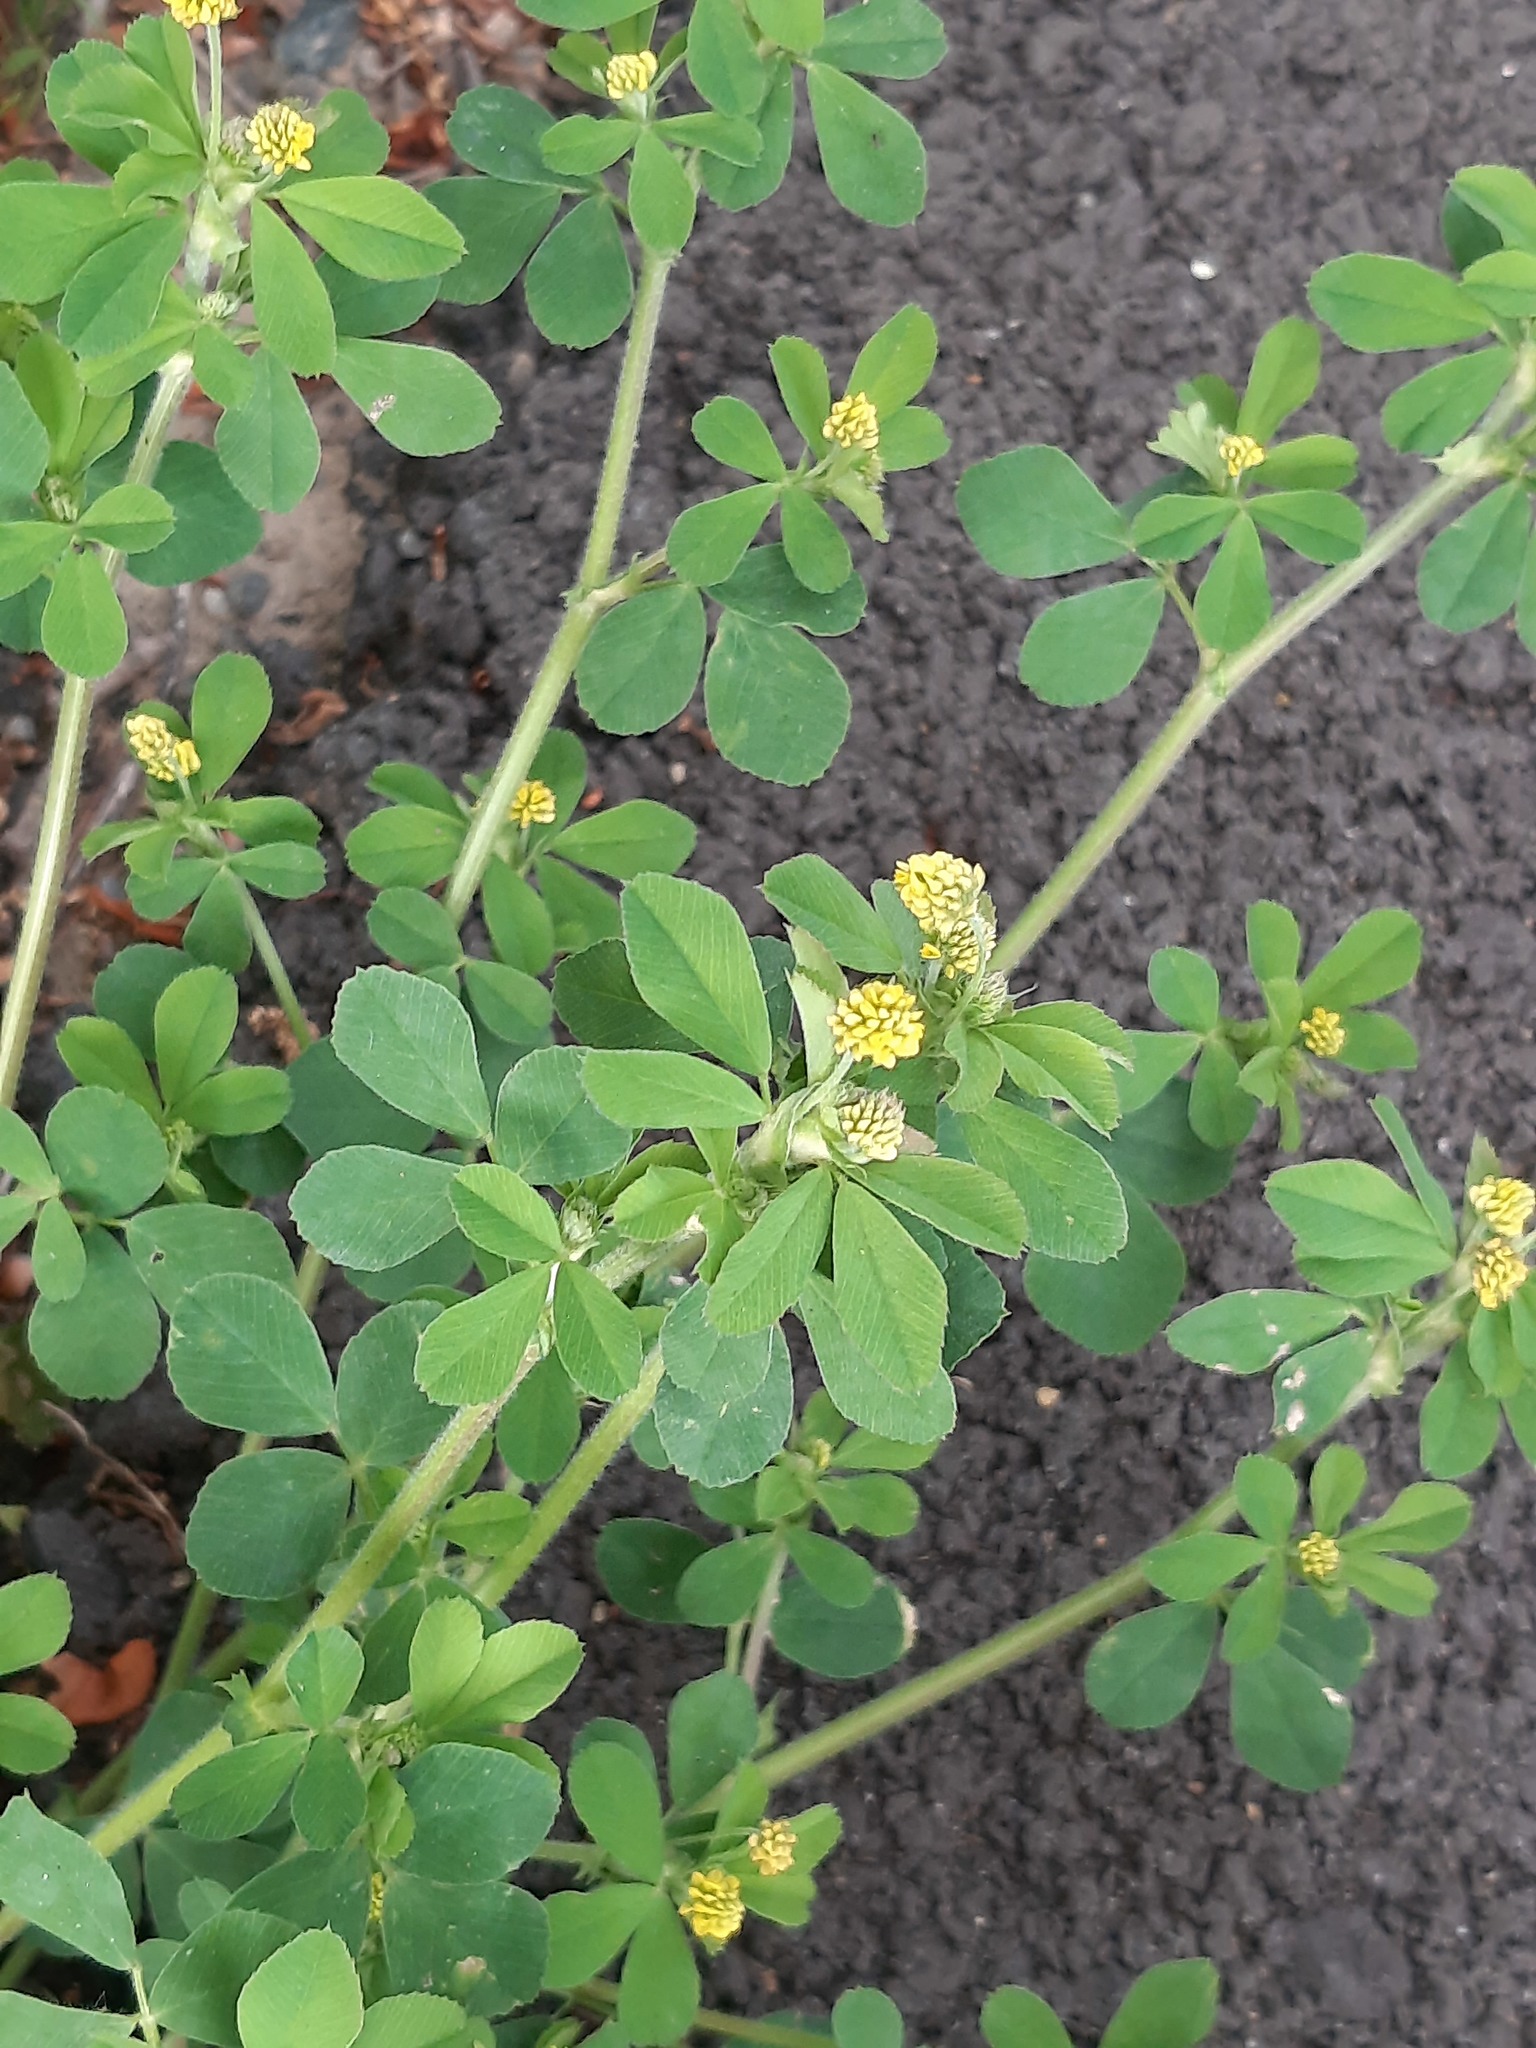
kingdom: Plantae
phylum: Tracheophyta
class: Magnoliopsida
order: Fabales
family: Fabaceae
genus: Medicago
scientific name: Medicago lupulina
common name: Black medick
